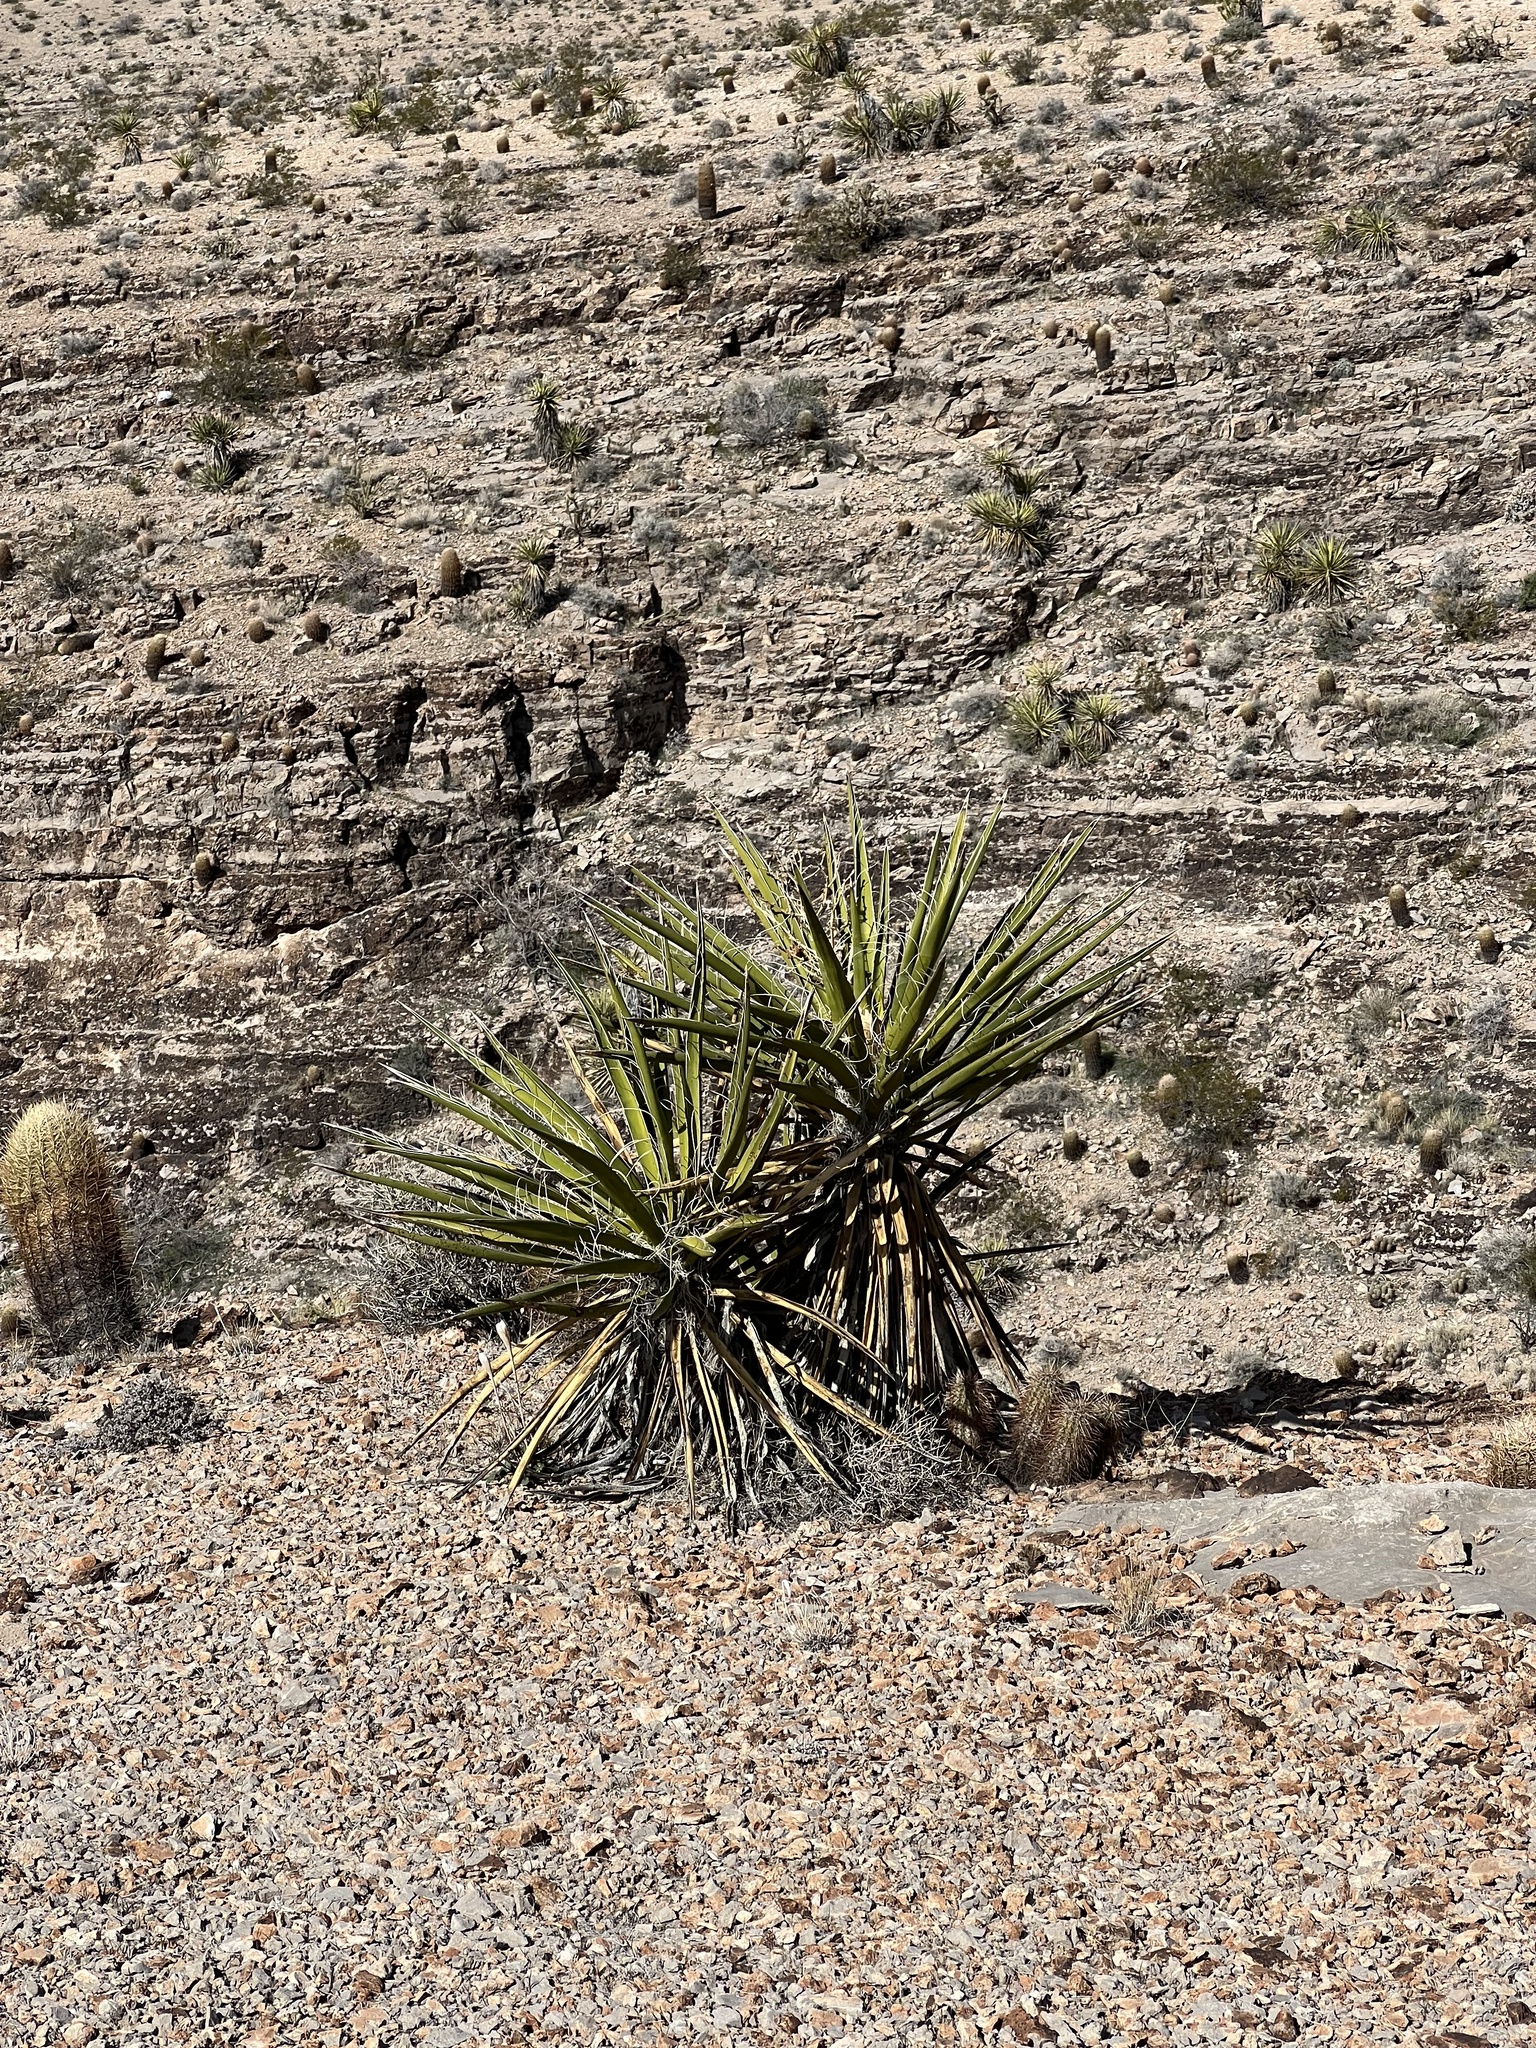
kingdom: Plantae
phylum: Tracheophyta
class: Liliopsida
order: Asparagales
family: Asparagaceae
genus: Yucca
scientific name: Yucca schidigera
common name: Mojave yucca
